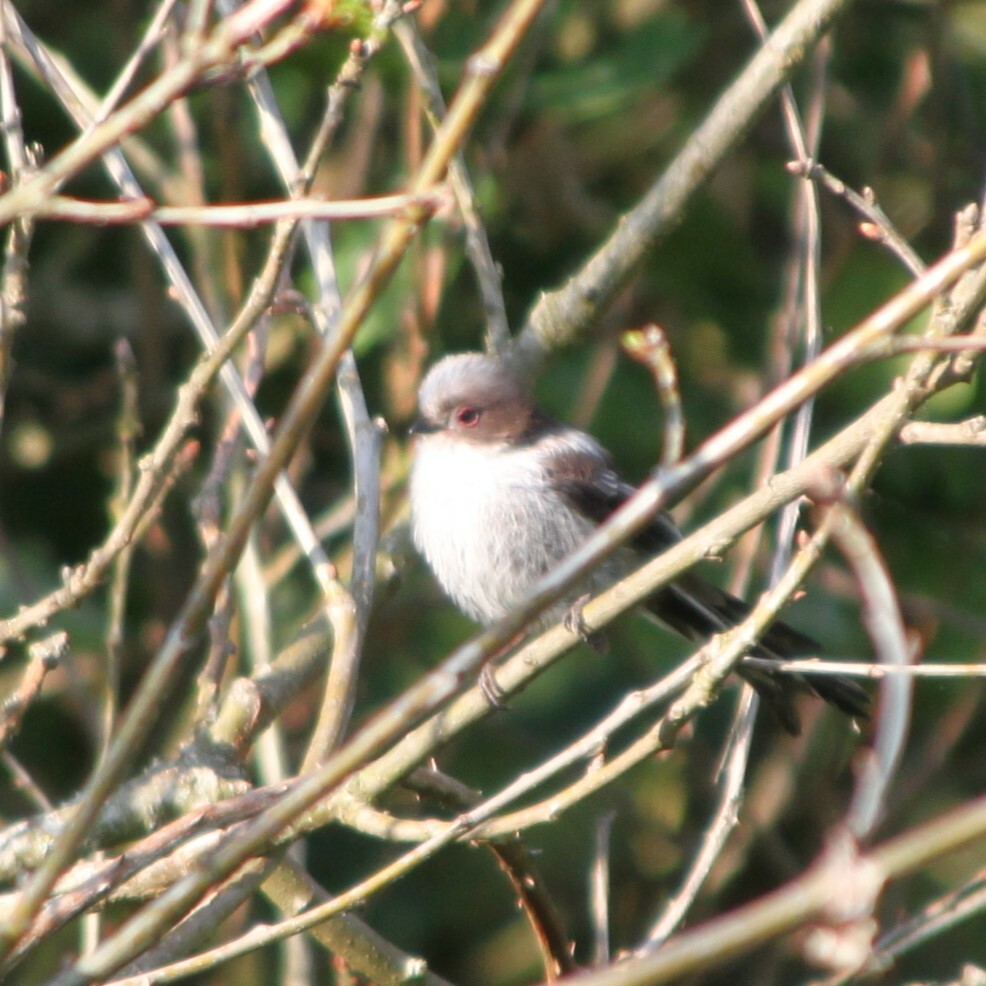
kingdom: Animalia
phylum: Chordata
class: Aves
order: Passeriformes
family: Aegithalidae
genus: Aegithalos
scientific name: Aegithalos caudatus
